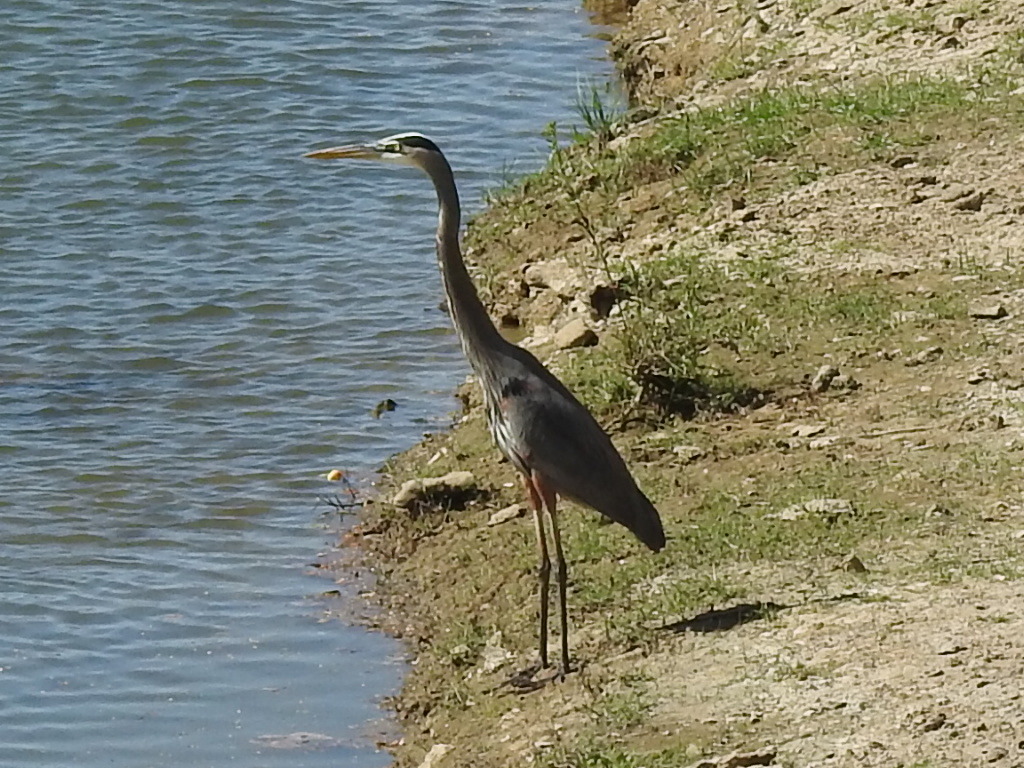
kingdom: Animalia
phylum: Chordata
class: Aves
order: Pelecaniformes
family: Ardeidae
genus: Ardea
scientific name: Ardea herodias
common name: Great blue heron
